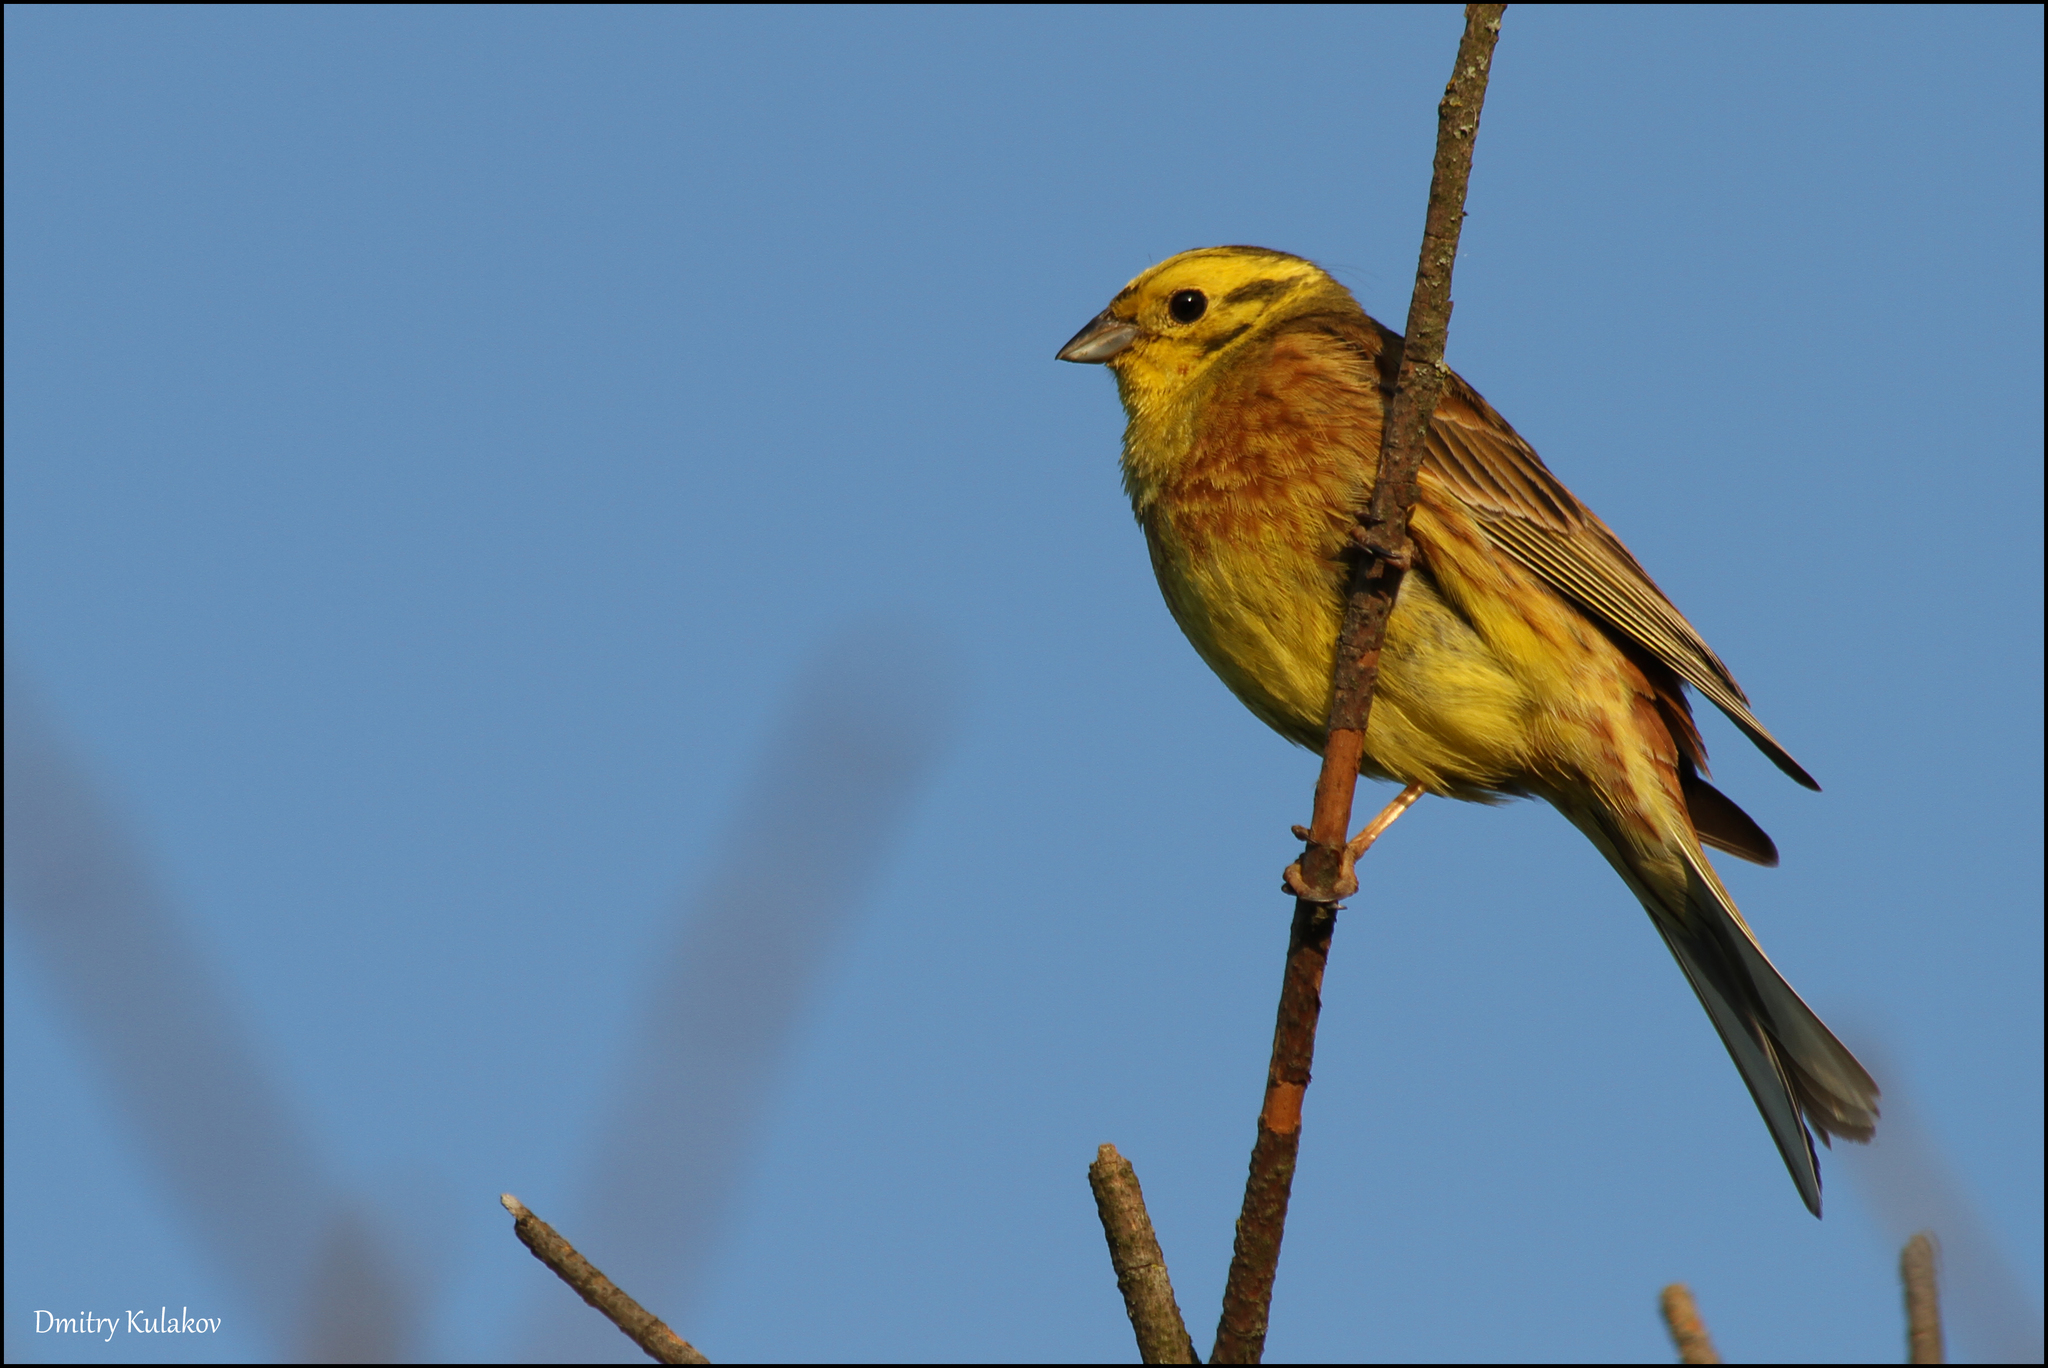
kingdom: Animalia
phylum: Chordata
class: Aves
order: Passeriformes
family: Emberizidae
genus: Emberiza
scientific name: Emberiza citrinella
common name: Yellowhammer
